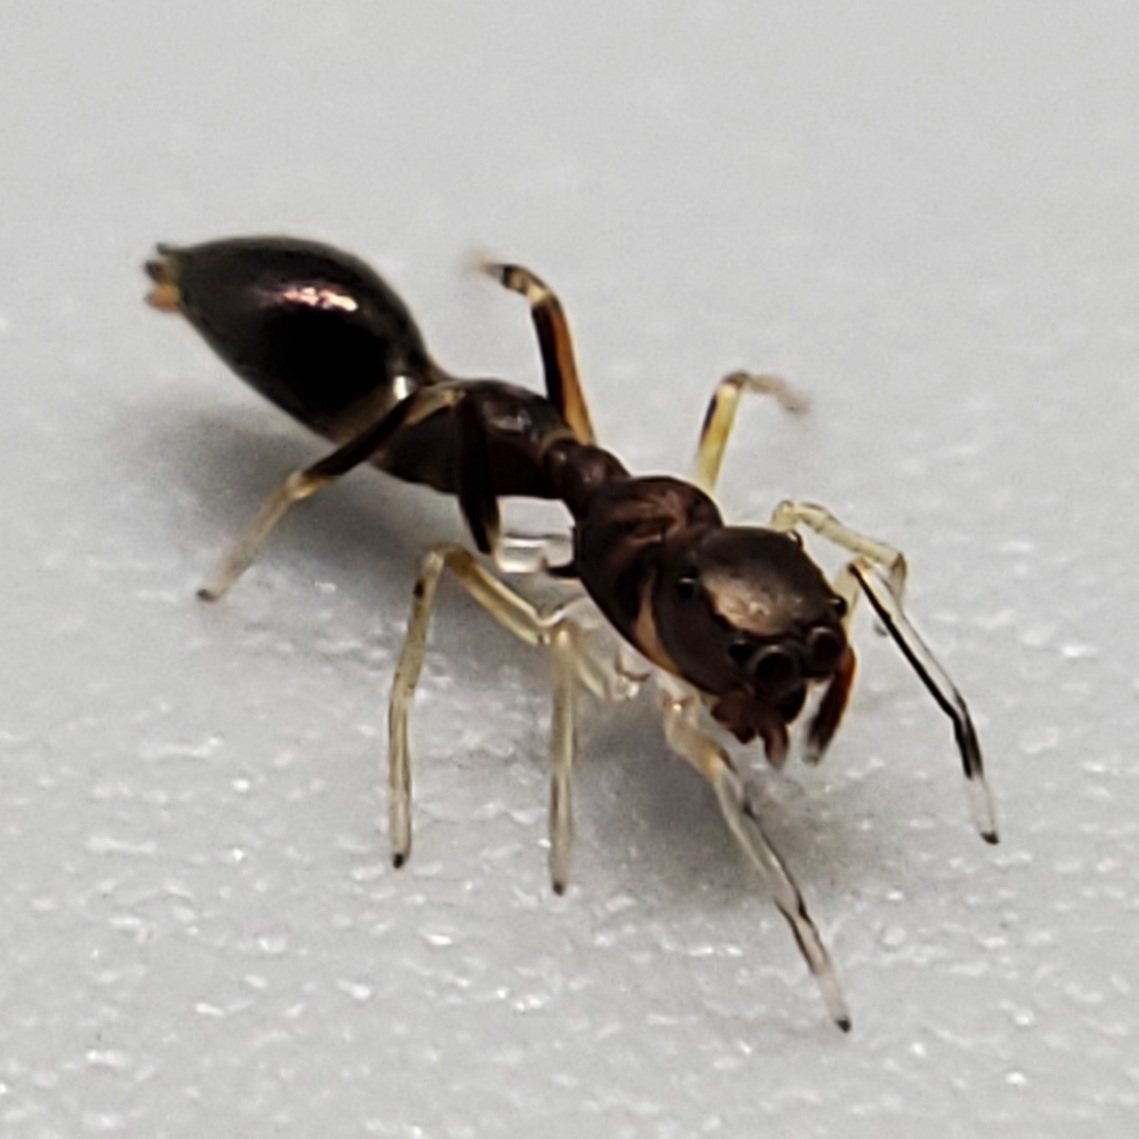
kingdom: Animalia
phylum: Arthropoda
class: Arachnida
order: Araneae
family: Salticidae
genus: Synemosyna
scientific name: Synemosyna formica
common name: Slender ant-mimic jumping spider
